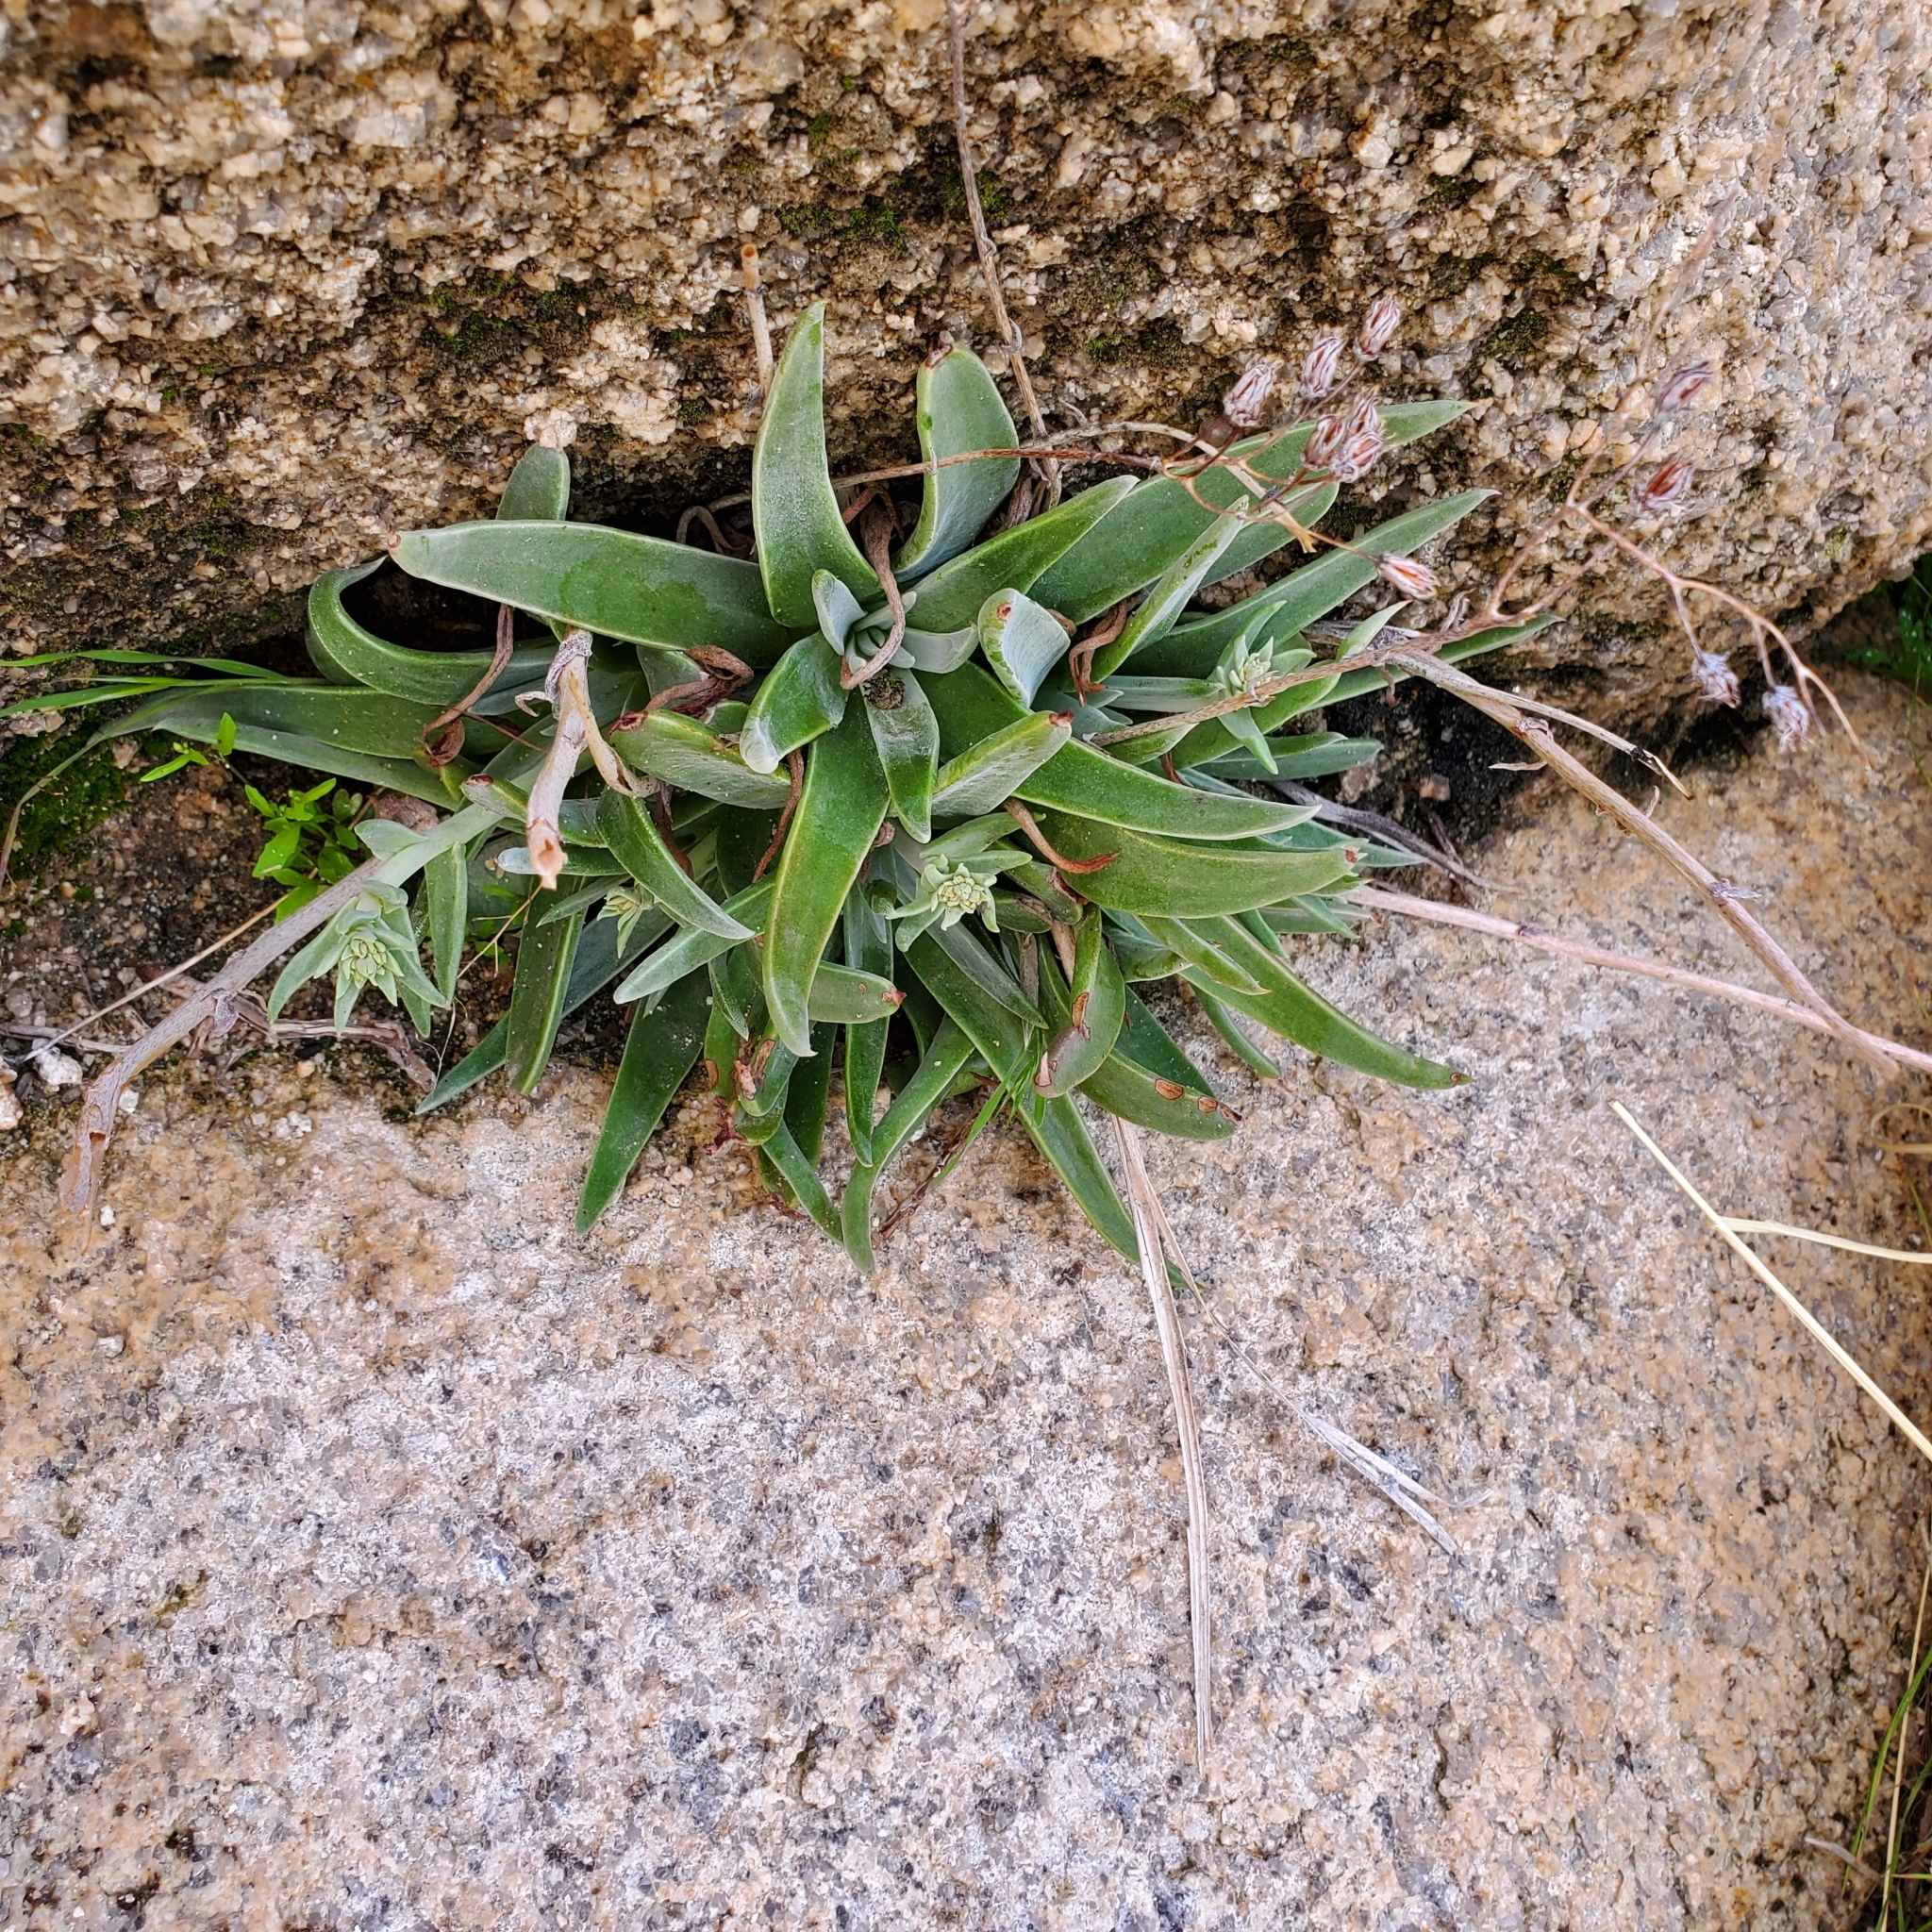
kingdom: Plantae
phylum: Tracheophyta
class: Magnoliopsida
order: Saxifragales
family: Crassulaceae
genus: Dudleya
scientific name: Dudleya saxosa
